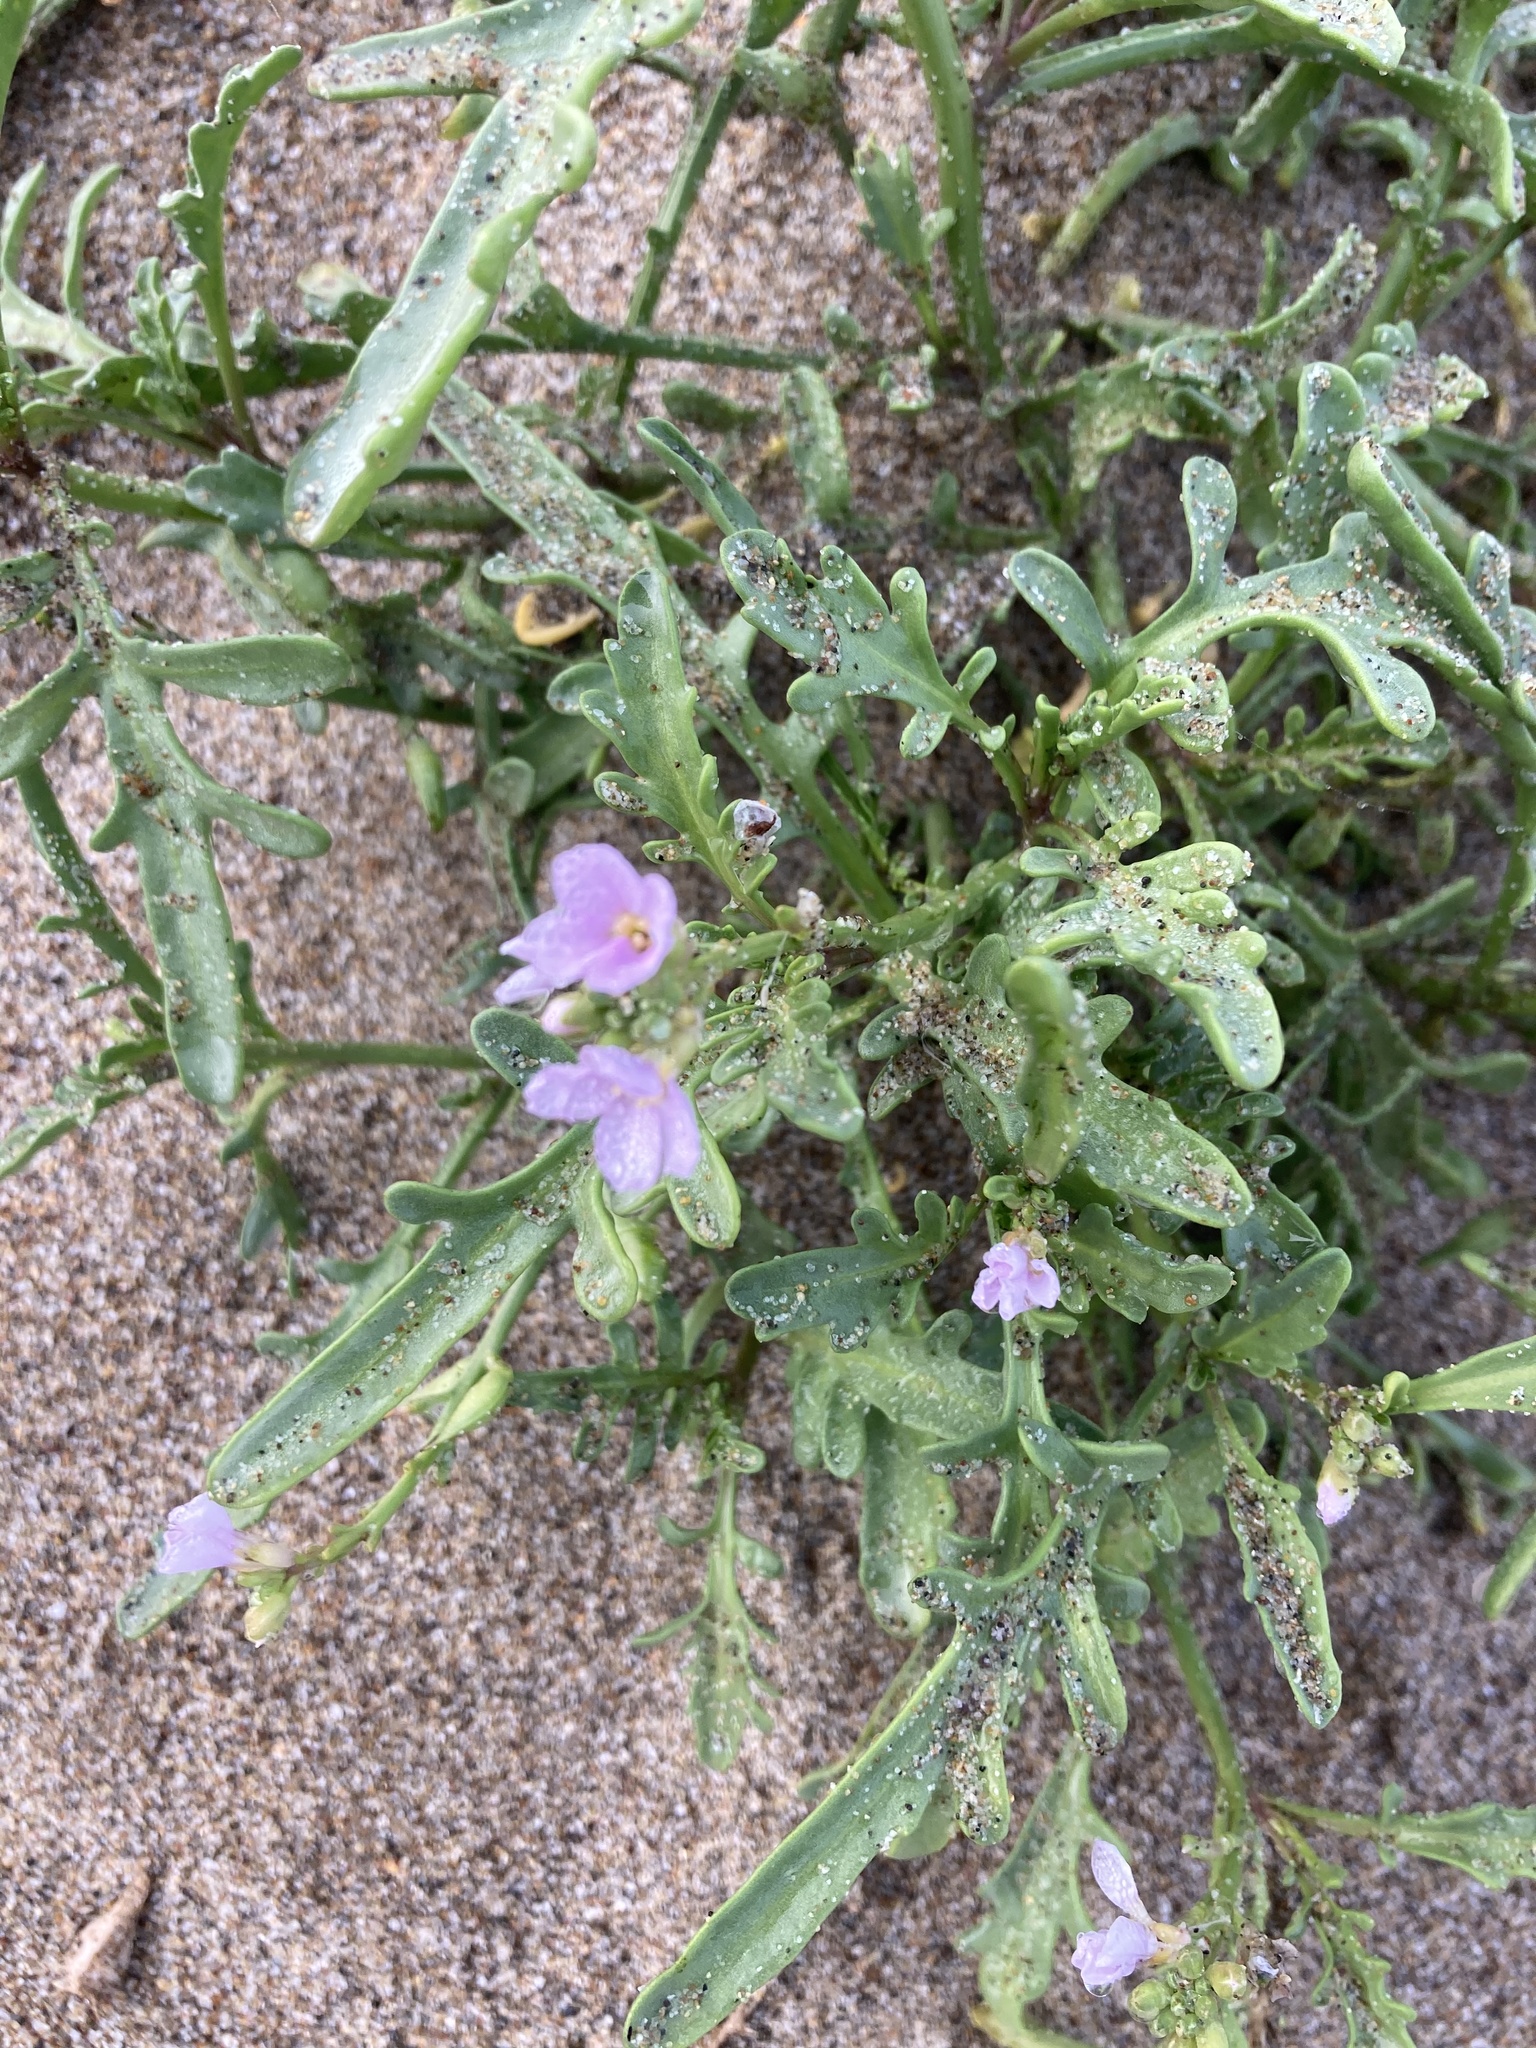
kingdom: Plantae
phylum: Tracheophyta
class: Magnoliopsida
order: Brassicales
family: Brassicaceae
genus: Cakile
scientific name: Cakile maritima
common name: Sea rocket
